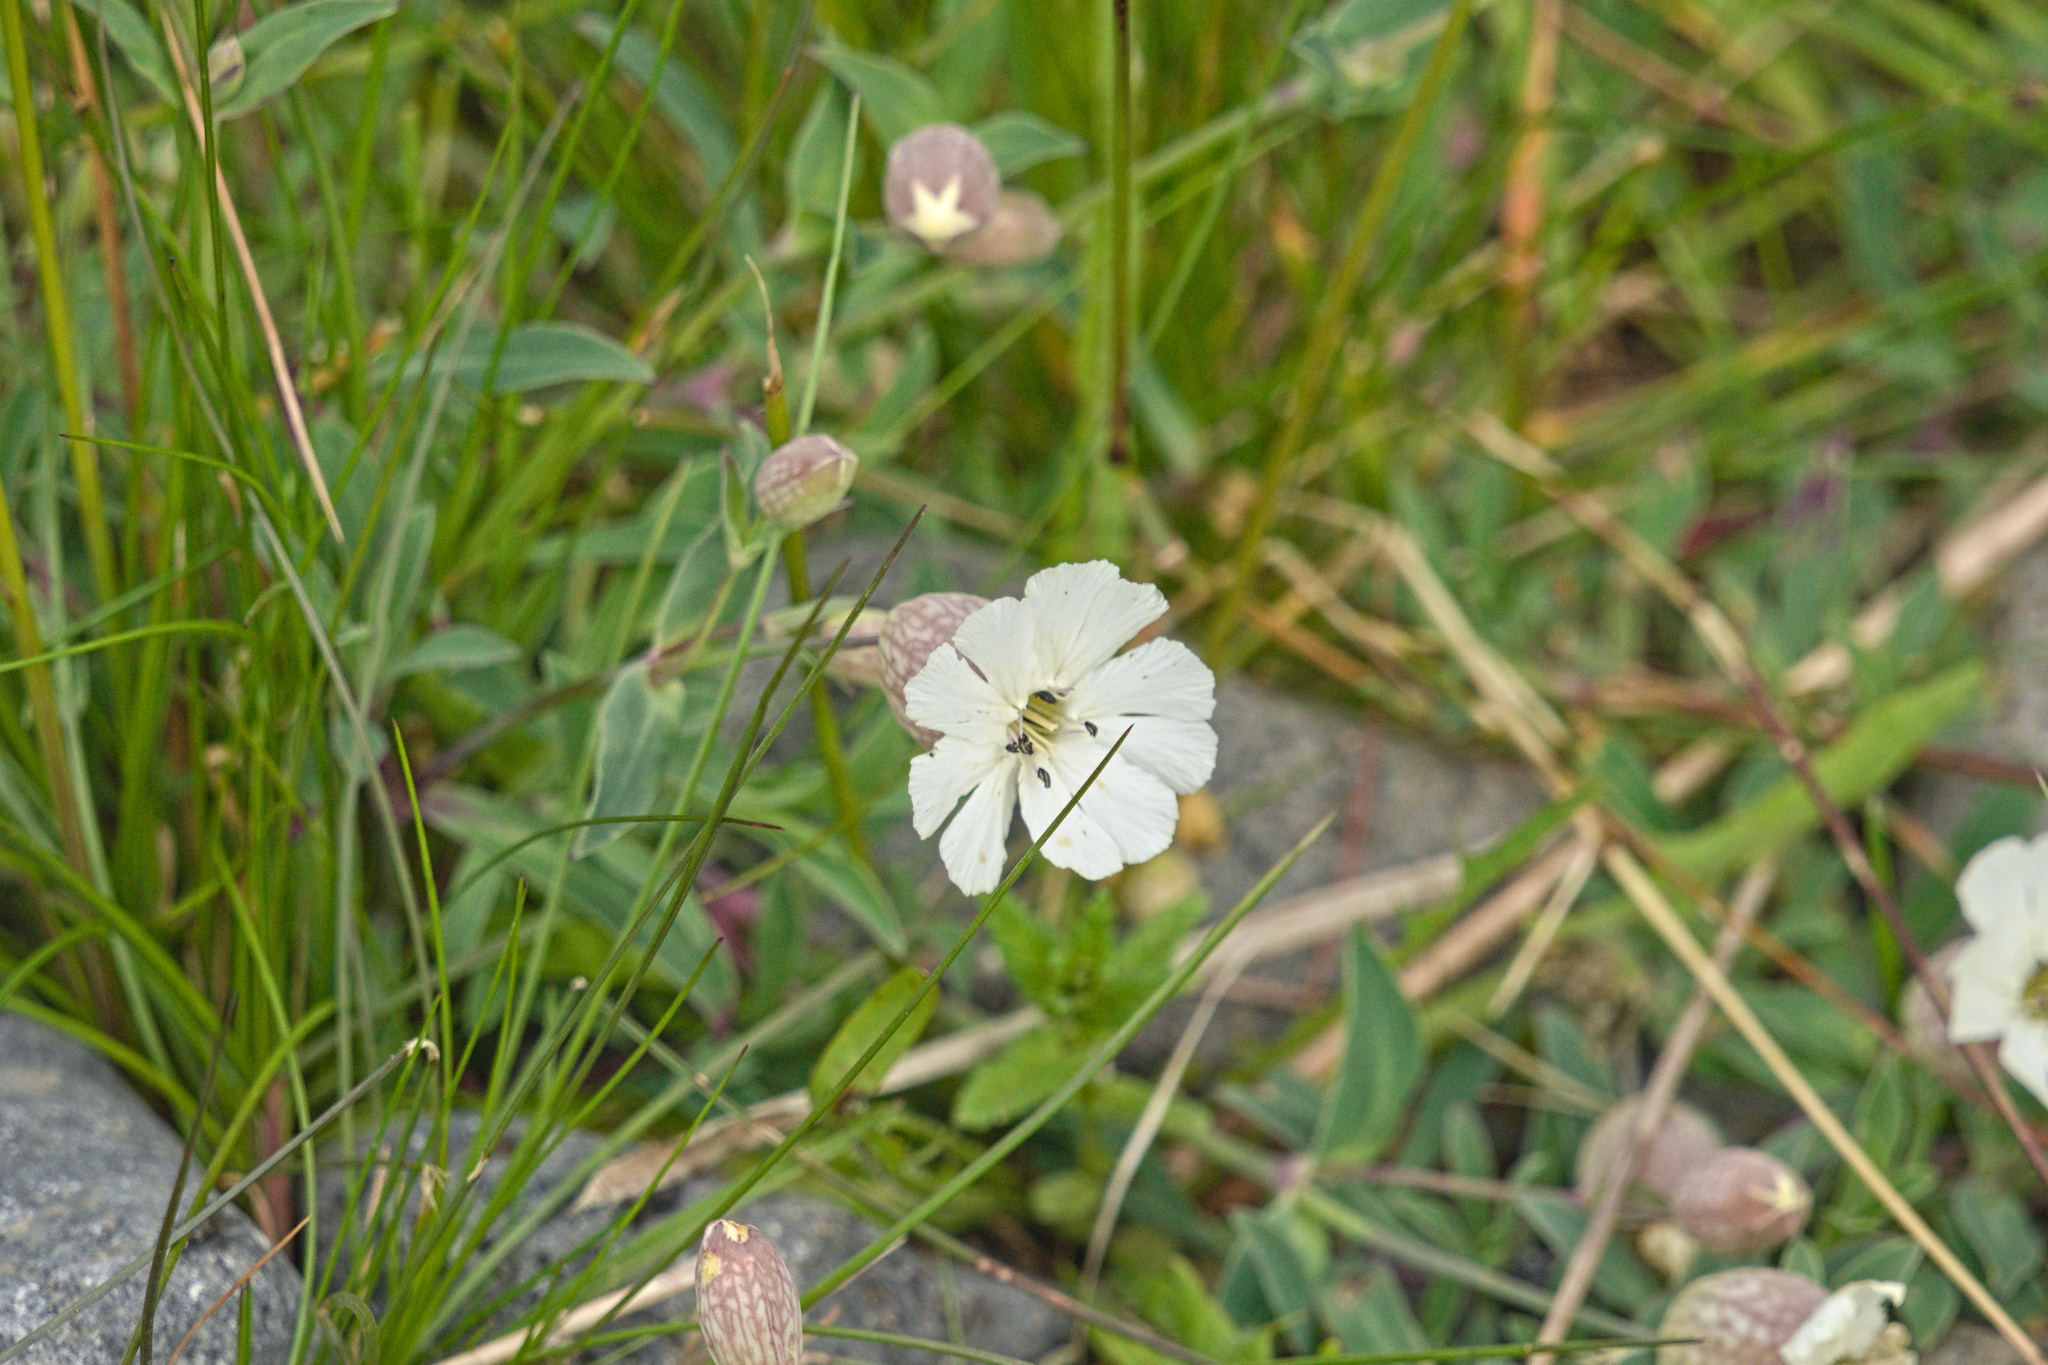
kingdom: Plantae
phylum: Tracheophyta
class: Magnoliopsida
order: Caryophyllales
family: Caryophyllaceae
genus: Silene
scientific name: Silene uniflora
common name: Sea campion
